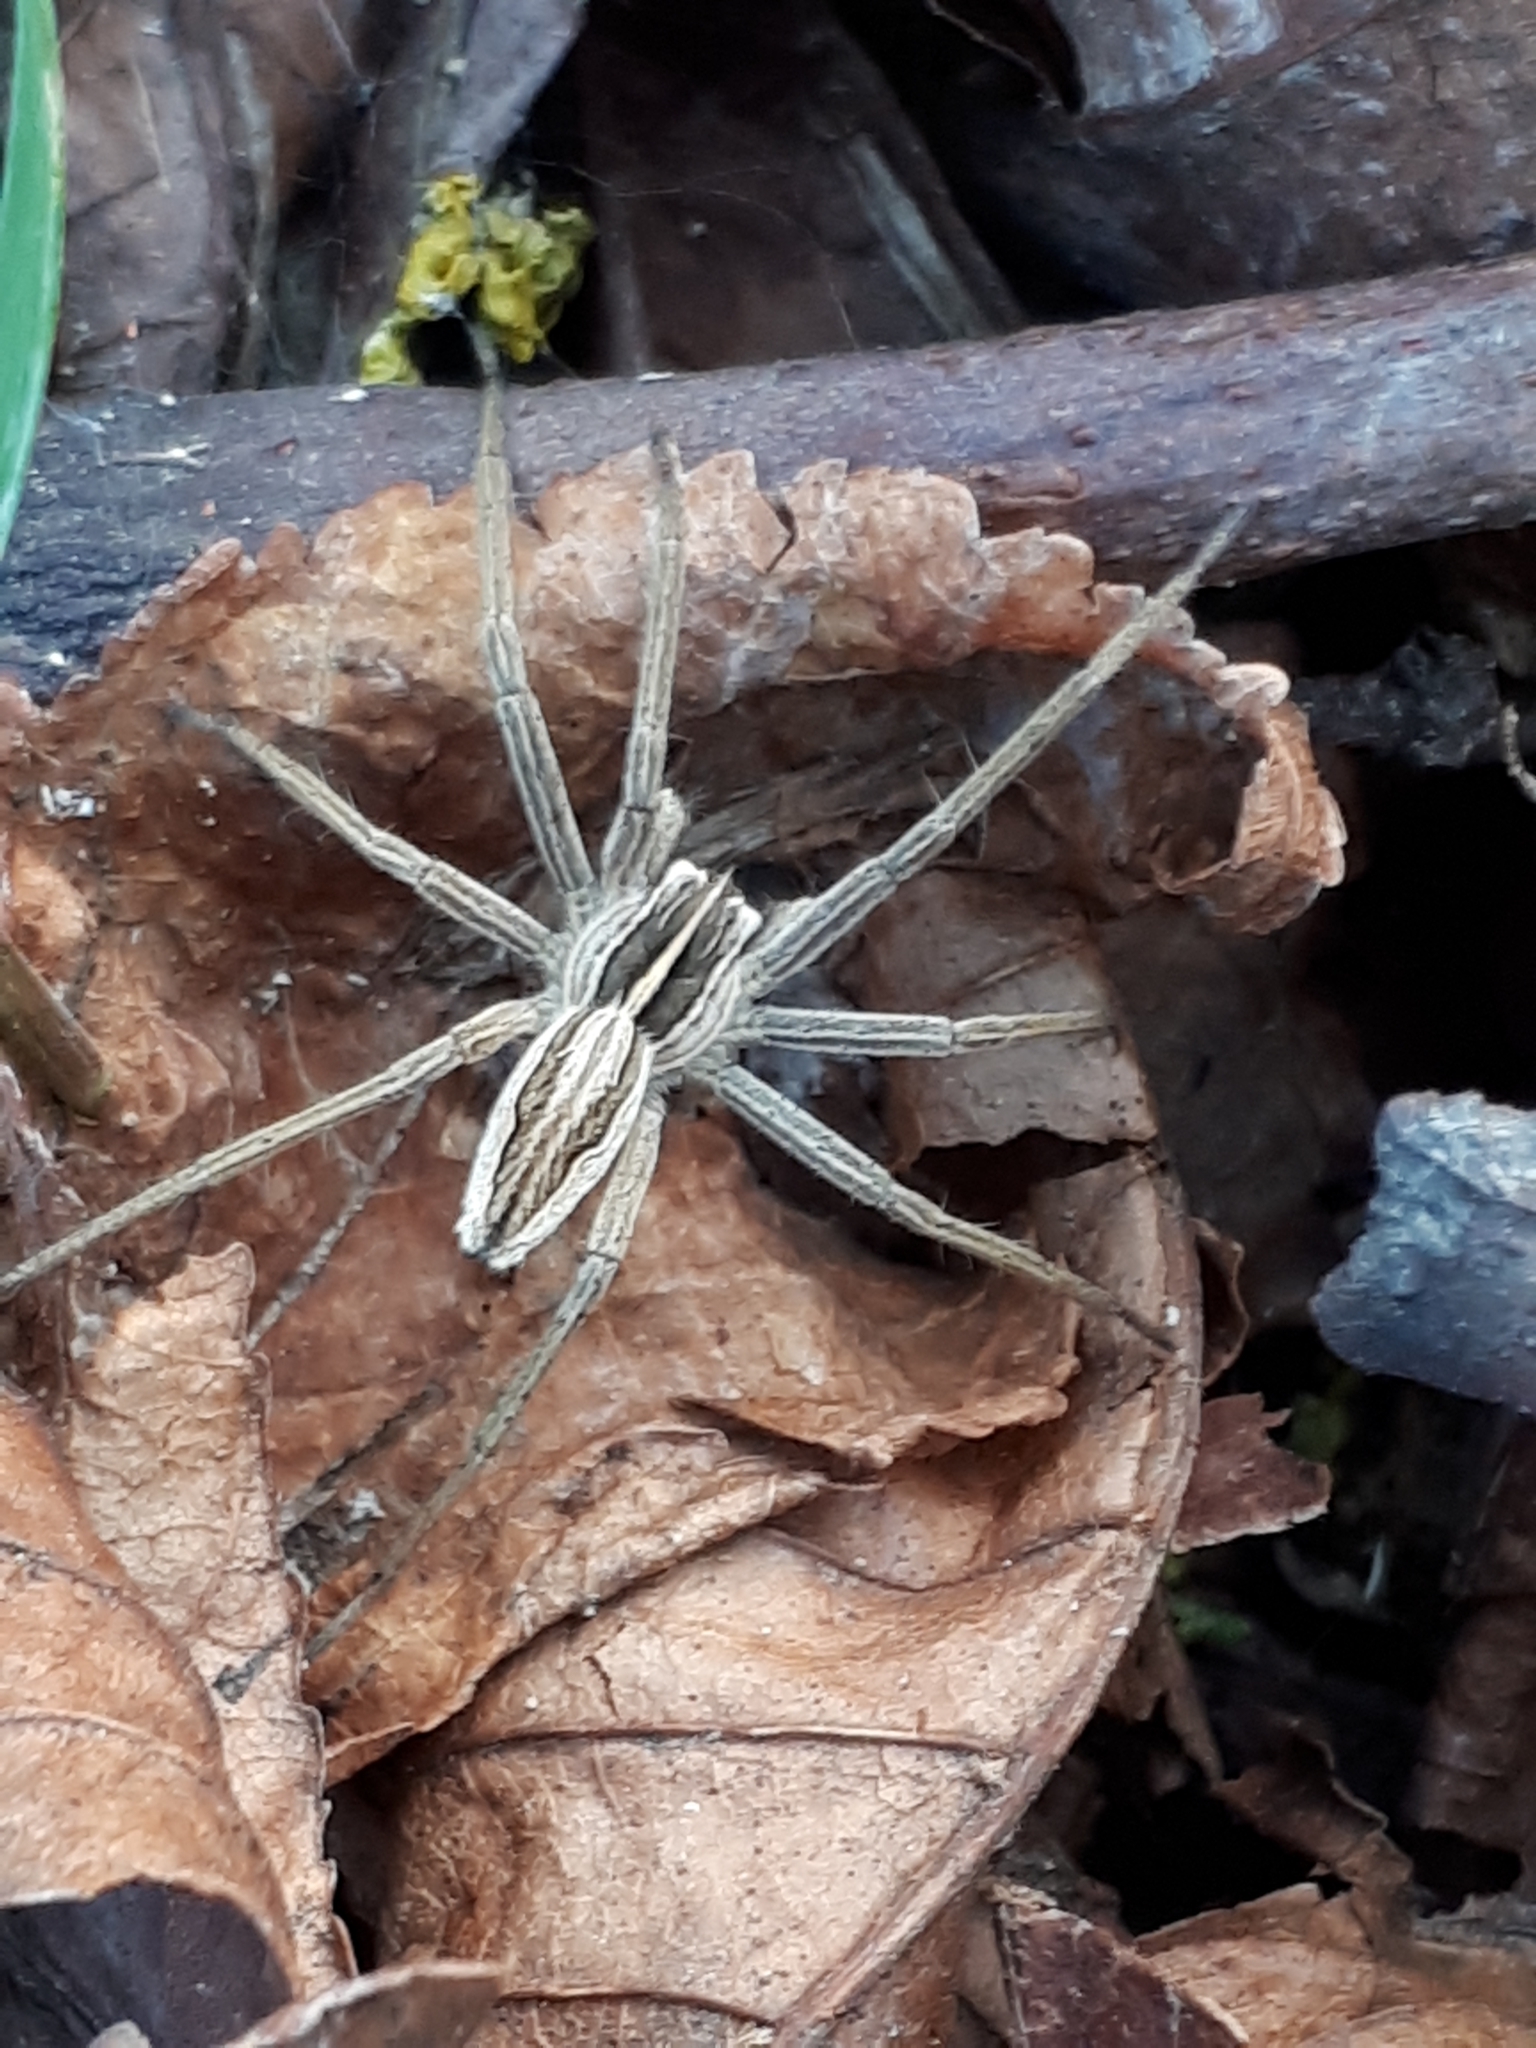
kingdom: Animalia
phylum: Arthropoda
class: Arachnida
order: Araneae
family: Pisauridae
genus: Pisaura
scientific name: Pisaura mirabilis
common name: Tent spider
